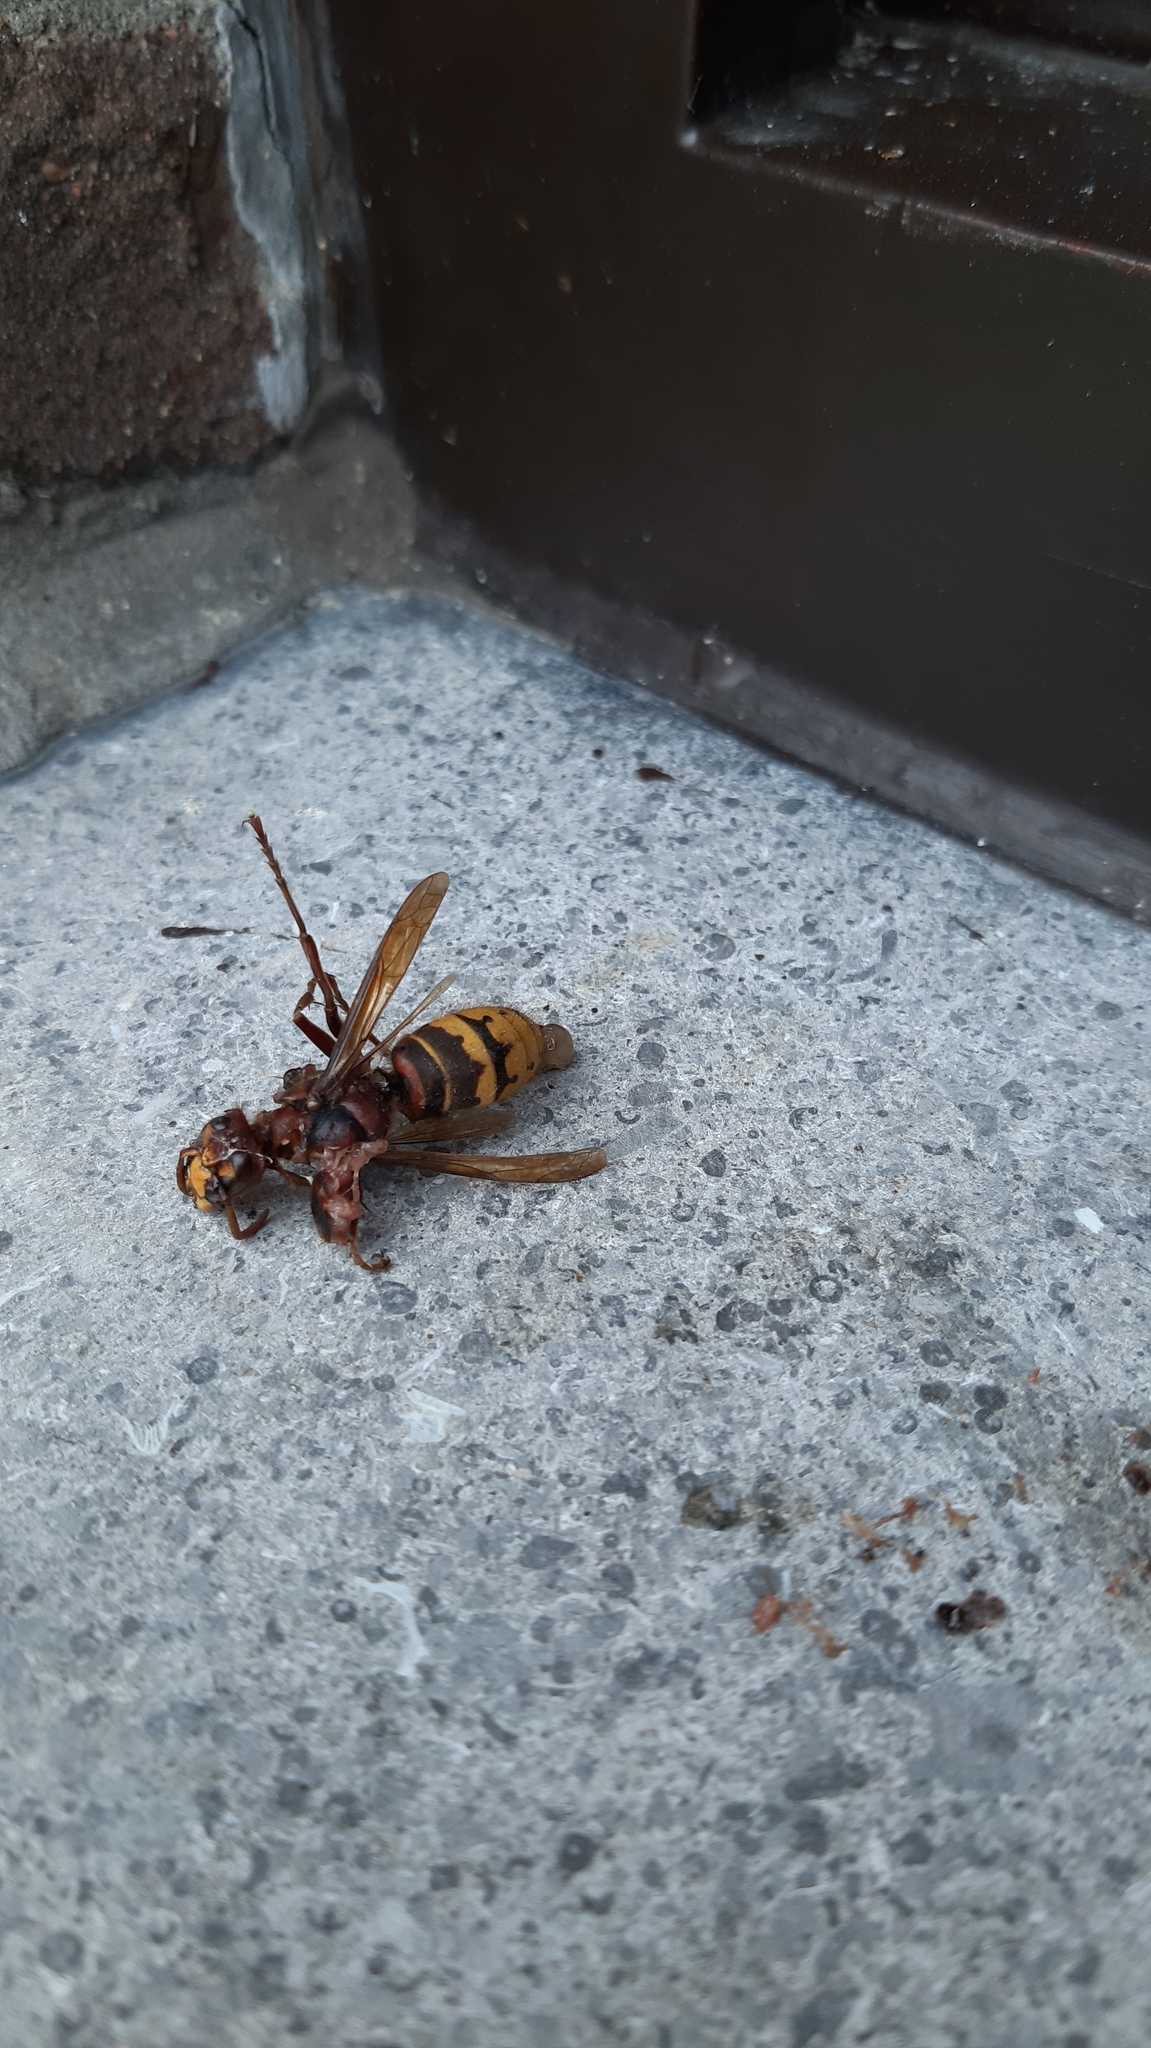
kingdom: Animalia
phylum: Arthropoda
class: Insecta
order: Hymenoptera
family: Vespidae
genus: Vespa
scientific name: Vespa crabro
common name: Hornet
